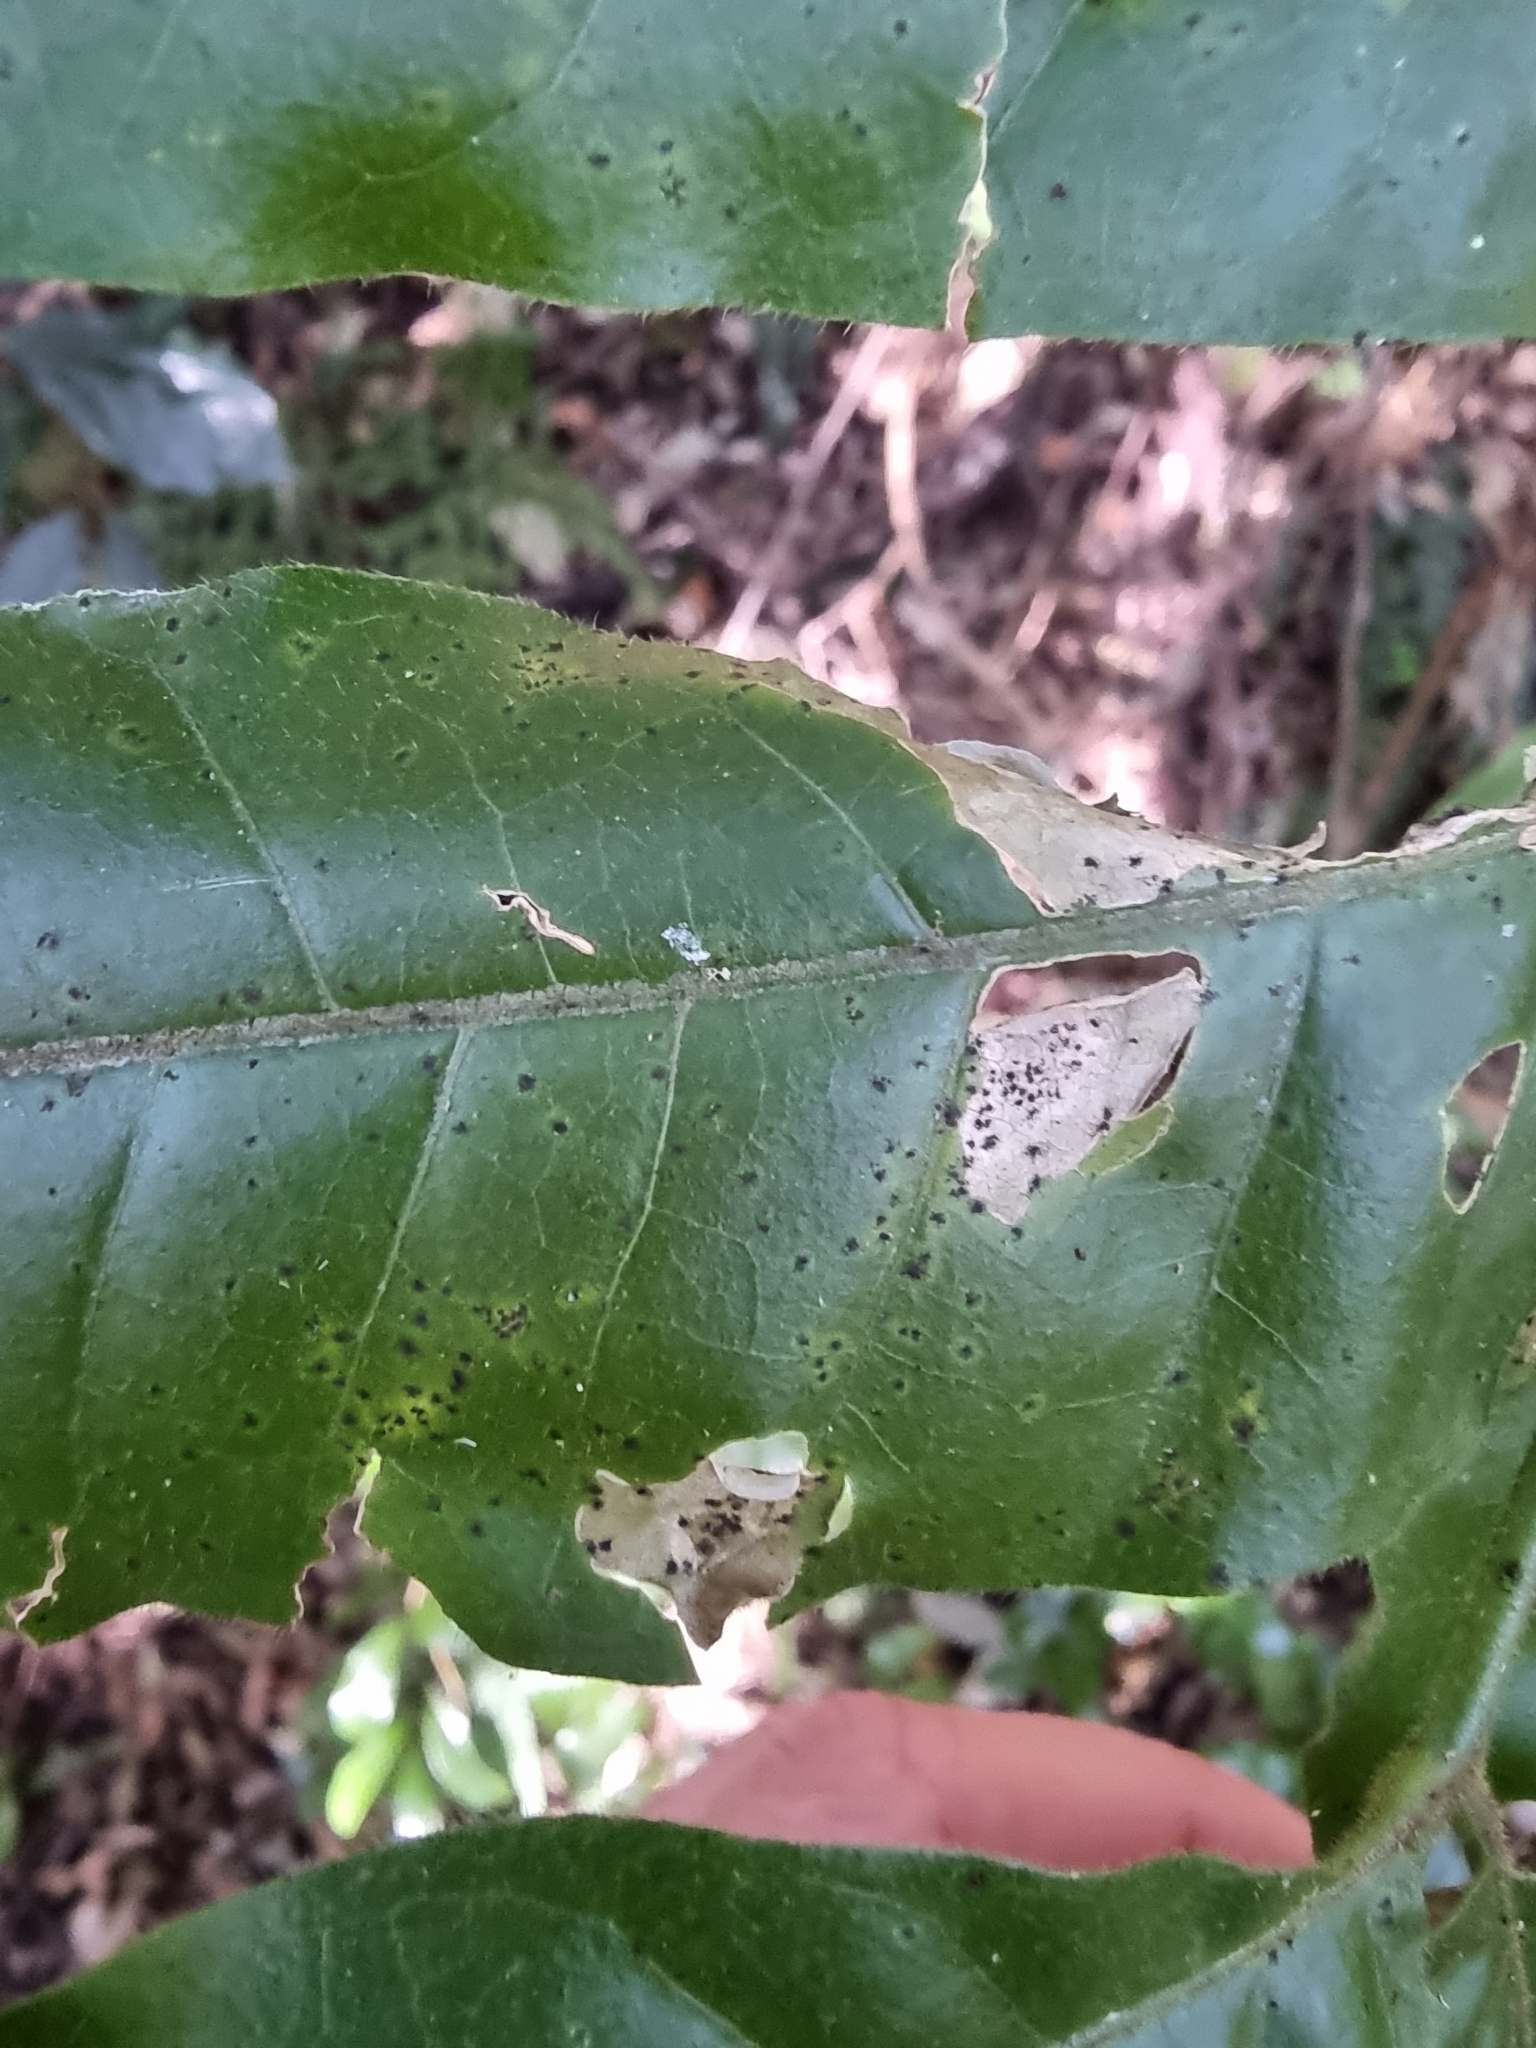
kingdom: Plantae
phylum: Tracheophyta
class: Magnoliopsida
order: Sapindales
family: Meliaceae
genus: Didymocheton
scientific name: Didymocheton rufus
